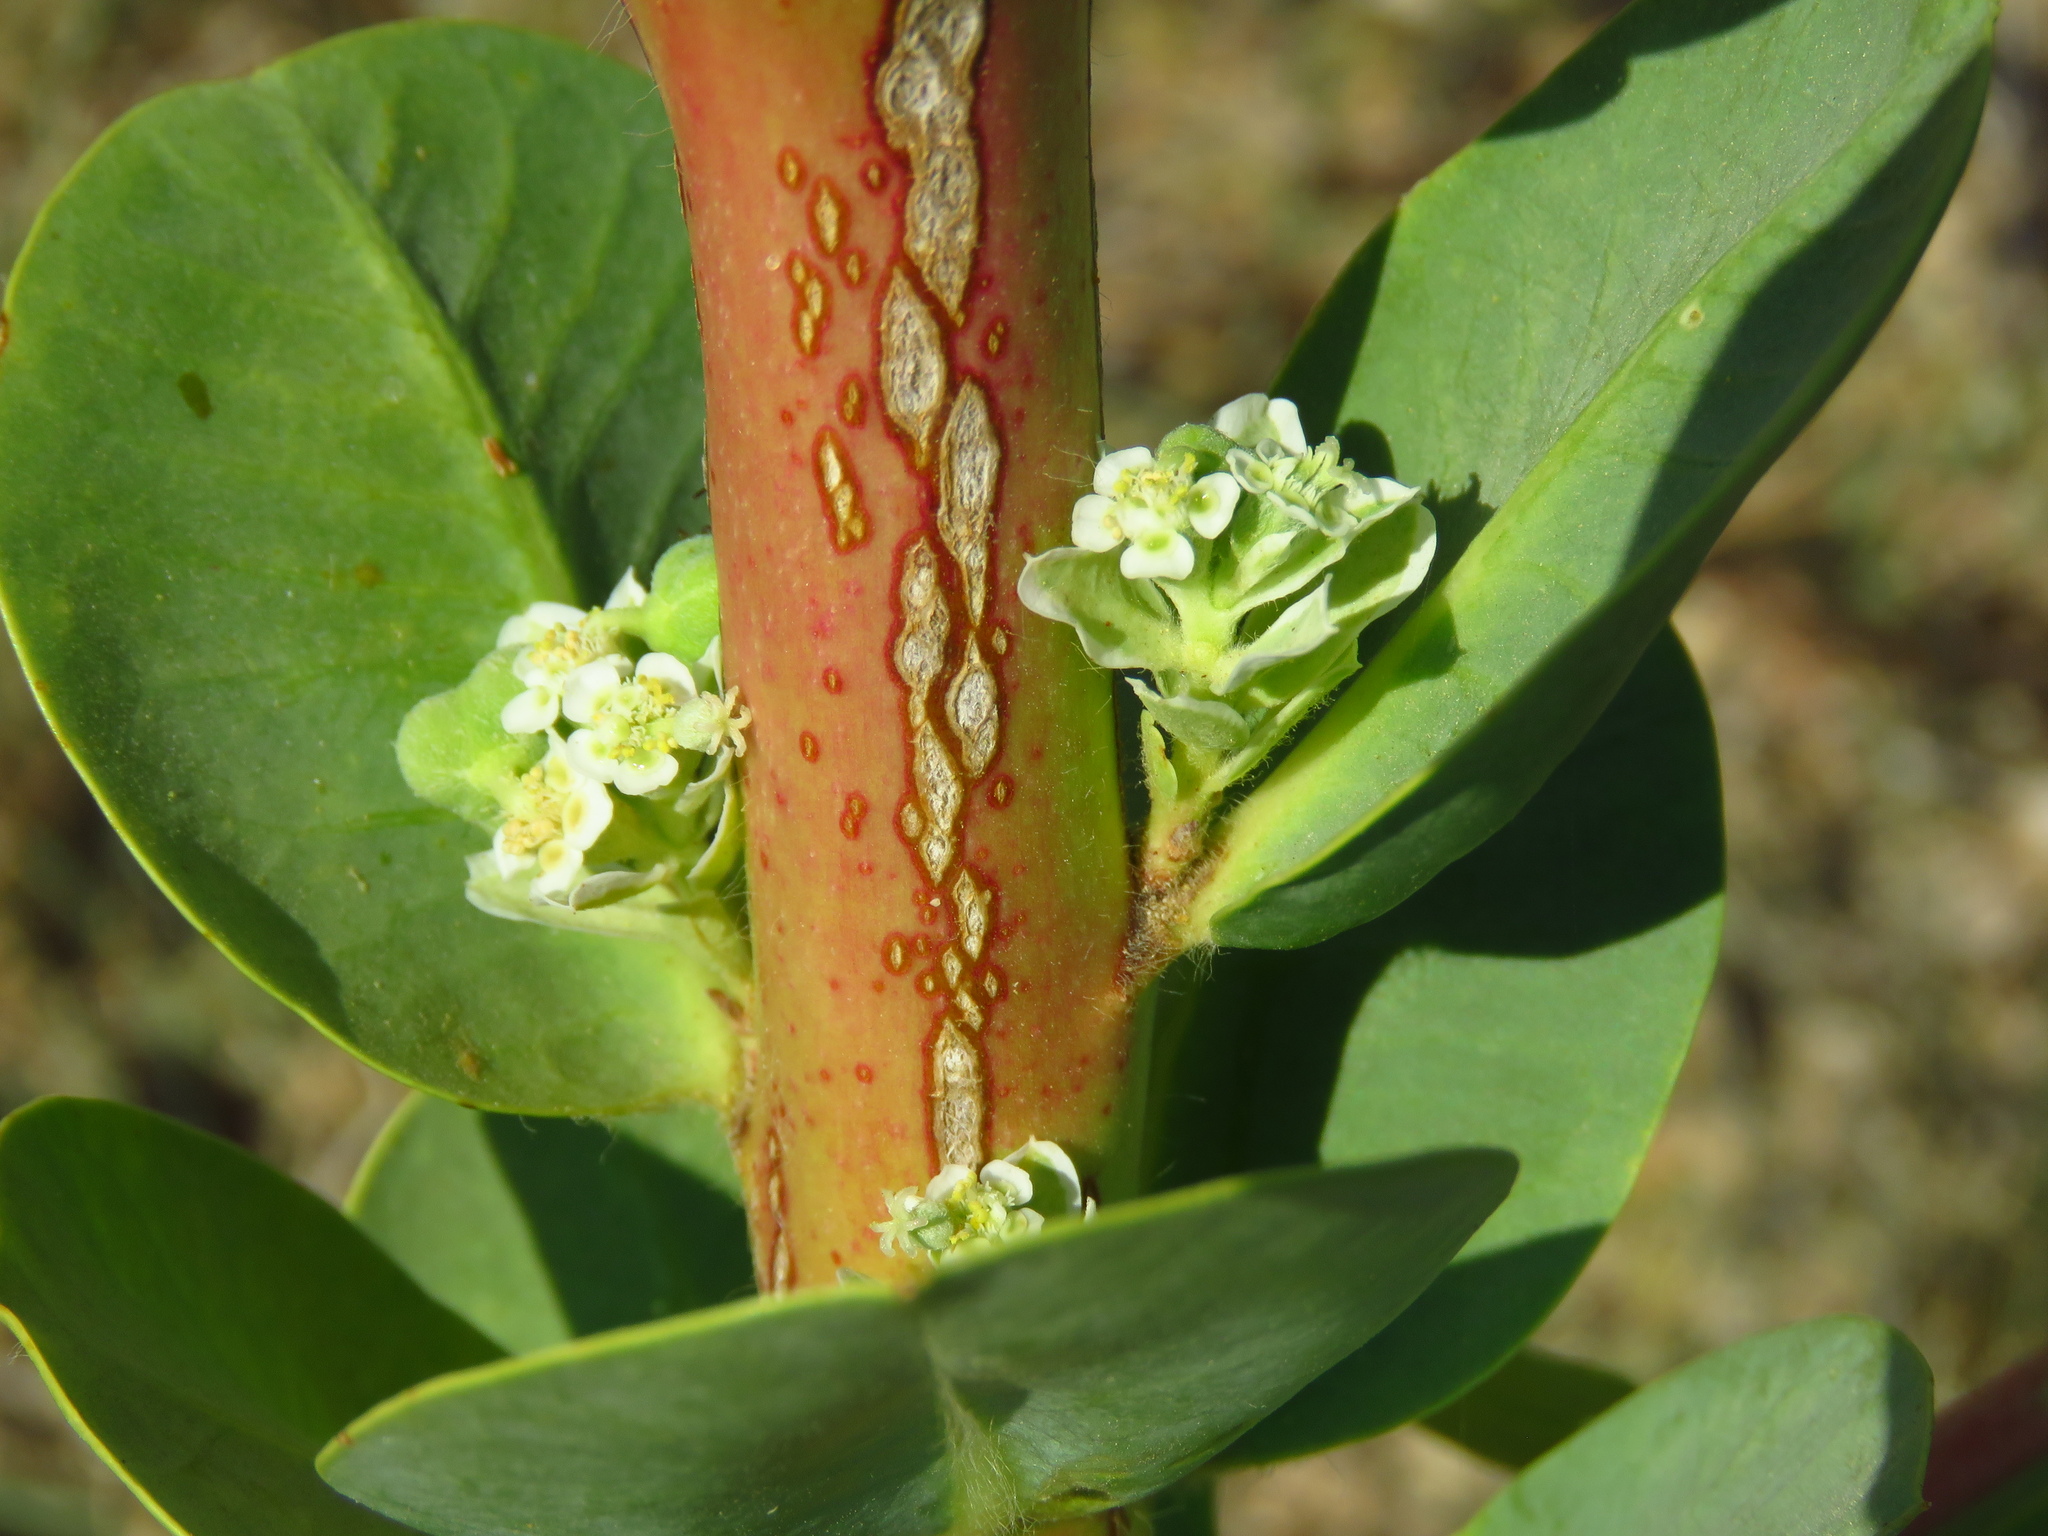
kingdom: Plantae
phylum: Tracheophyta
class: Magnoliopsida
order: Malpighiales
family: Euphorbiaceae
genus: Euphorbia
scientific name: Euphorbia marginata
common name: Ghostweed
